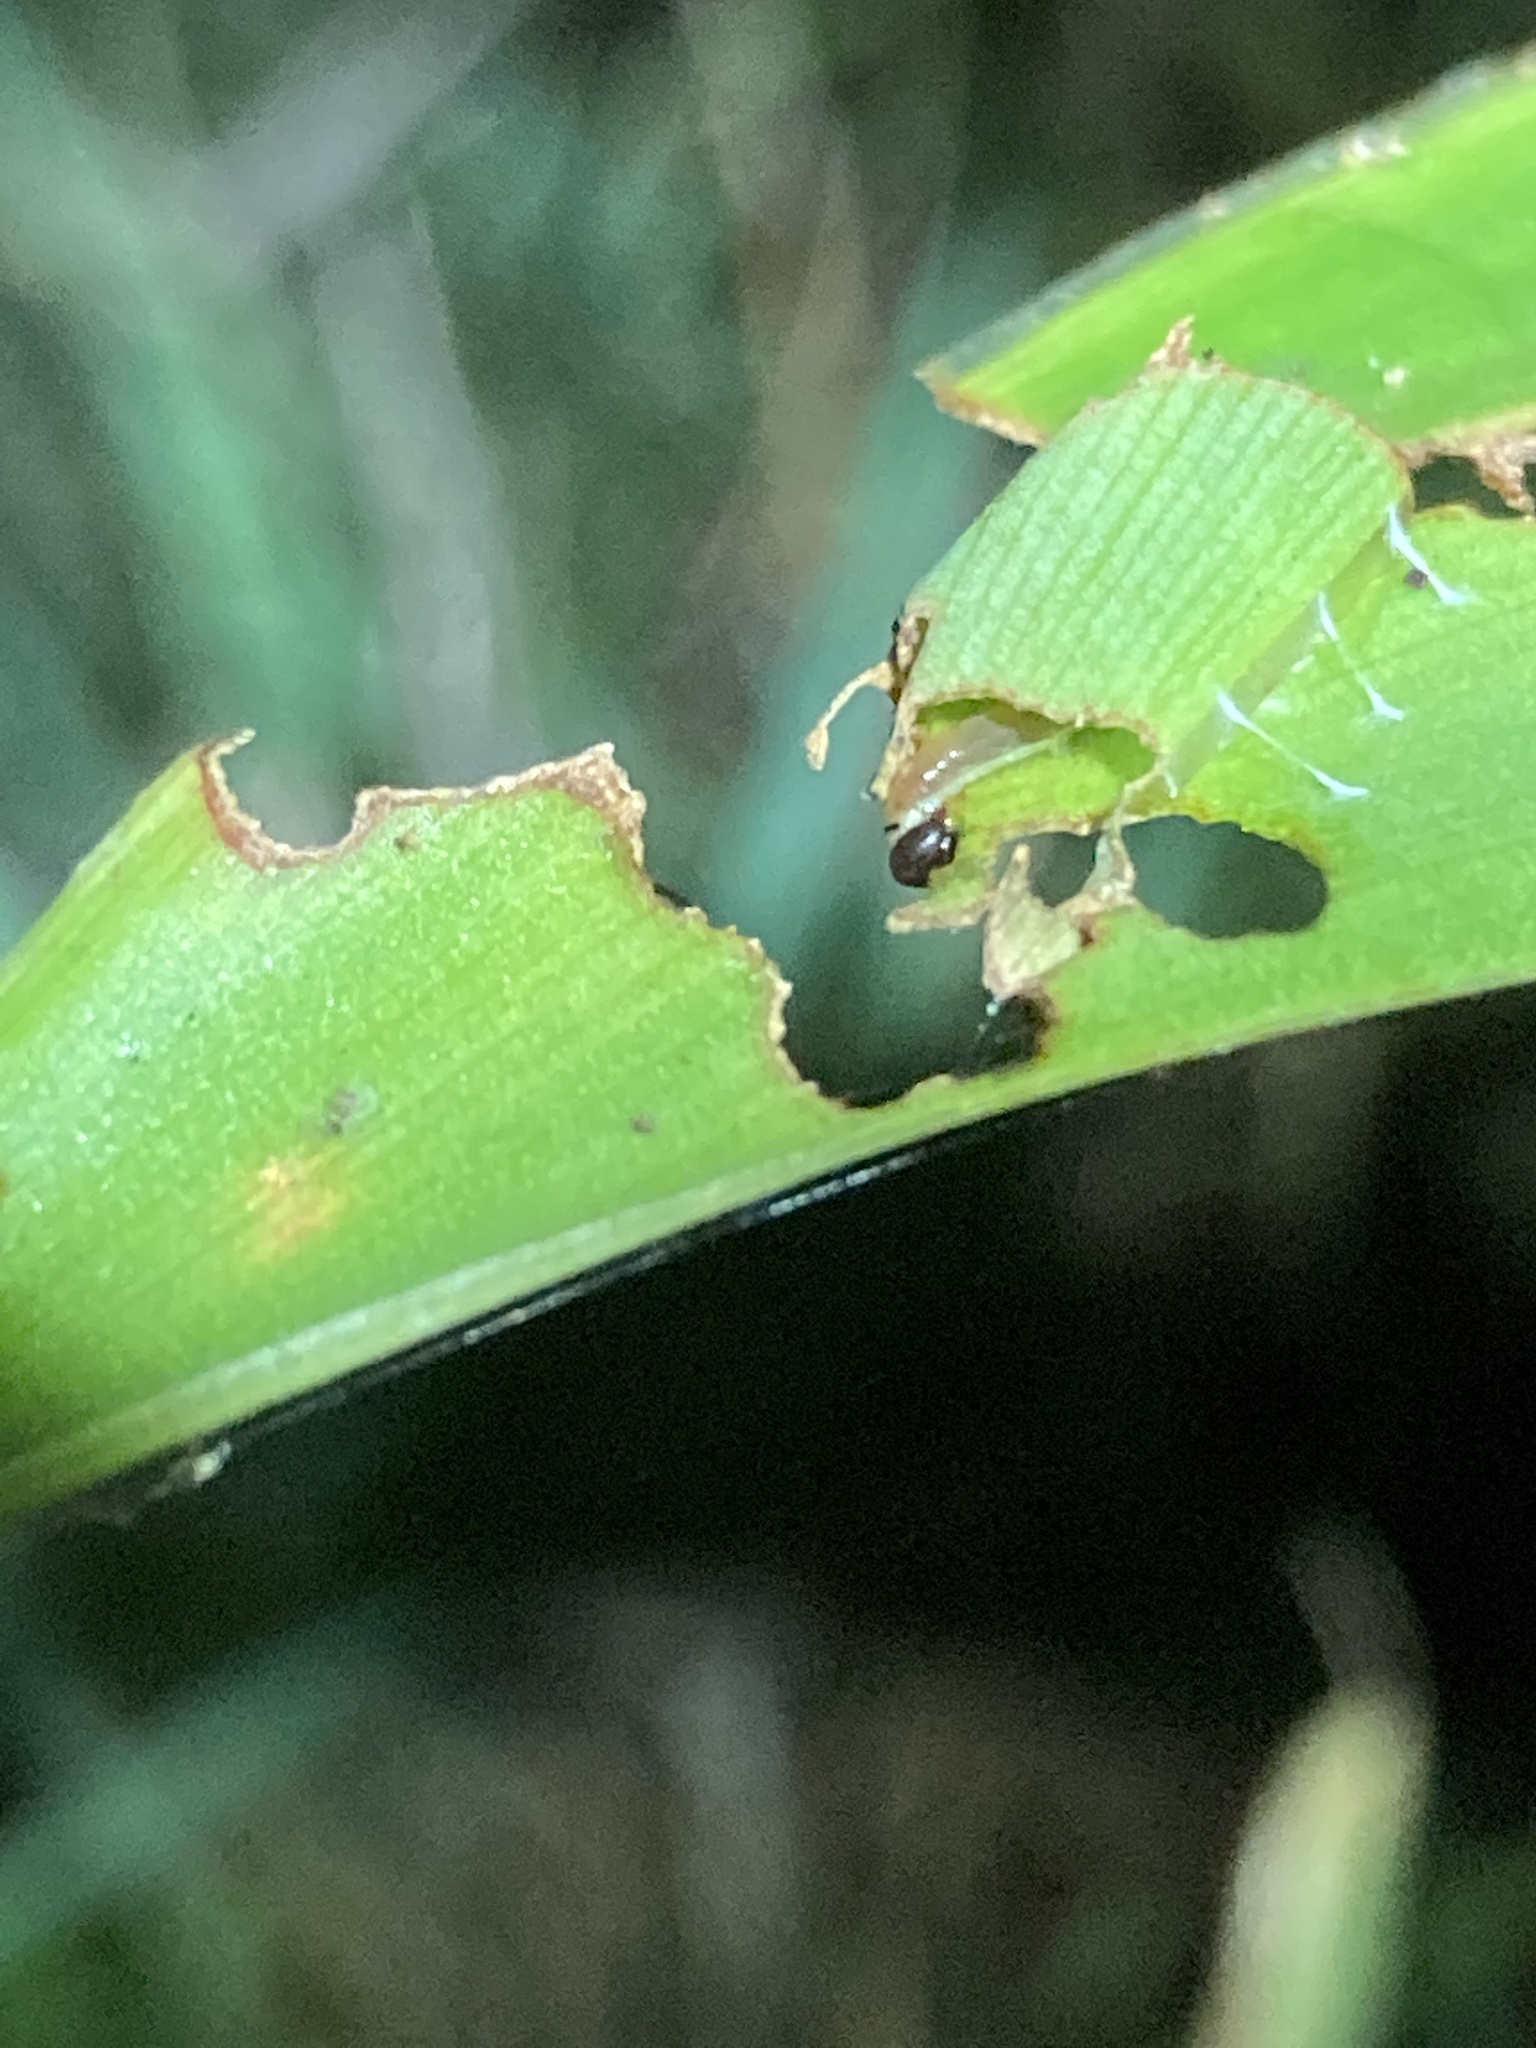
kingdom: Animalia
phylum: Arthropoda
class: Insecta
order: Lepidoptera
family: Hesperiidae
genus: Calpodes
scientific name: Calpodes ethlius
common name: Brazilian skipper
